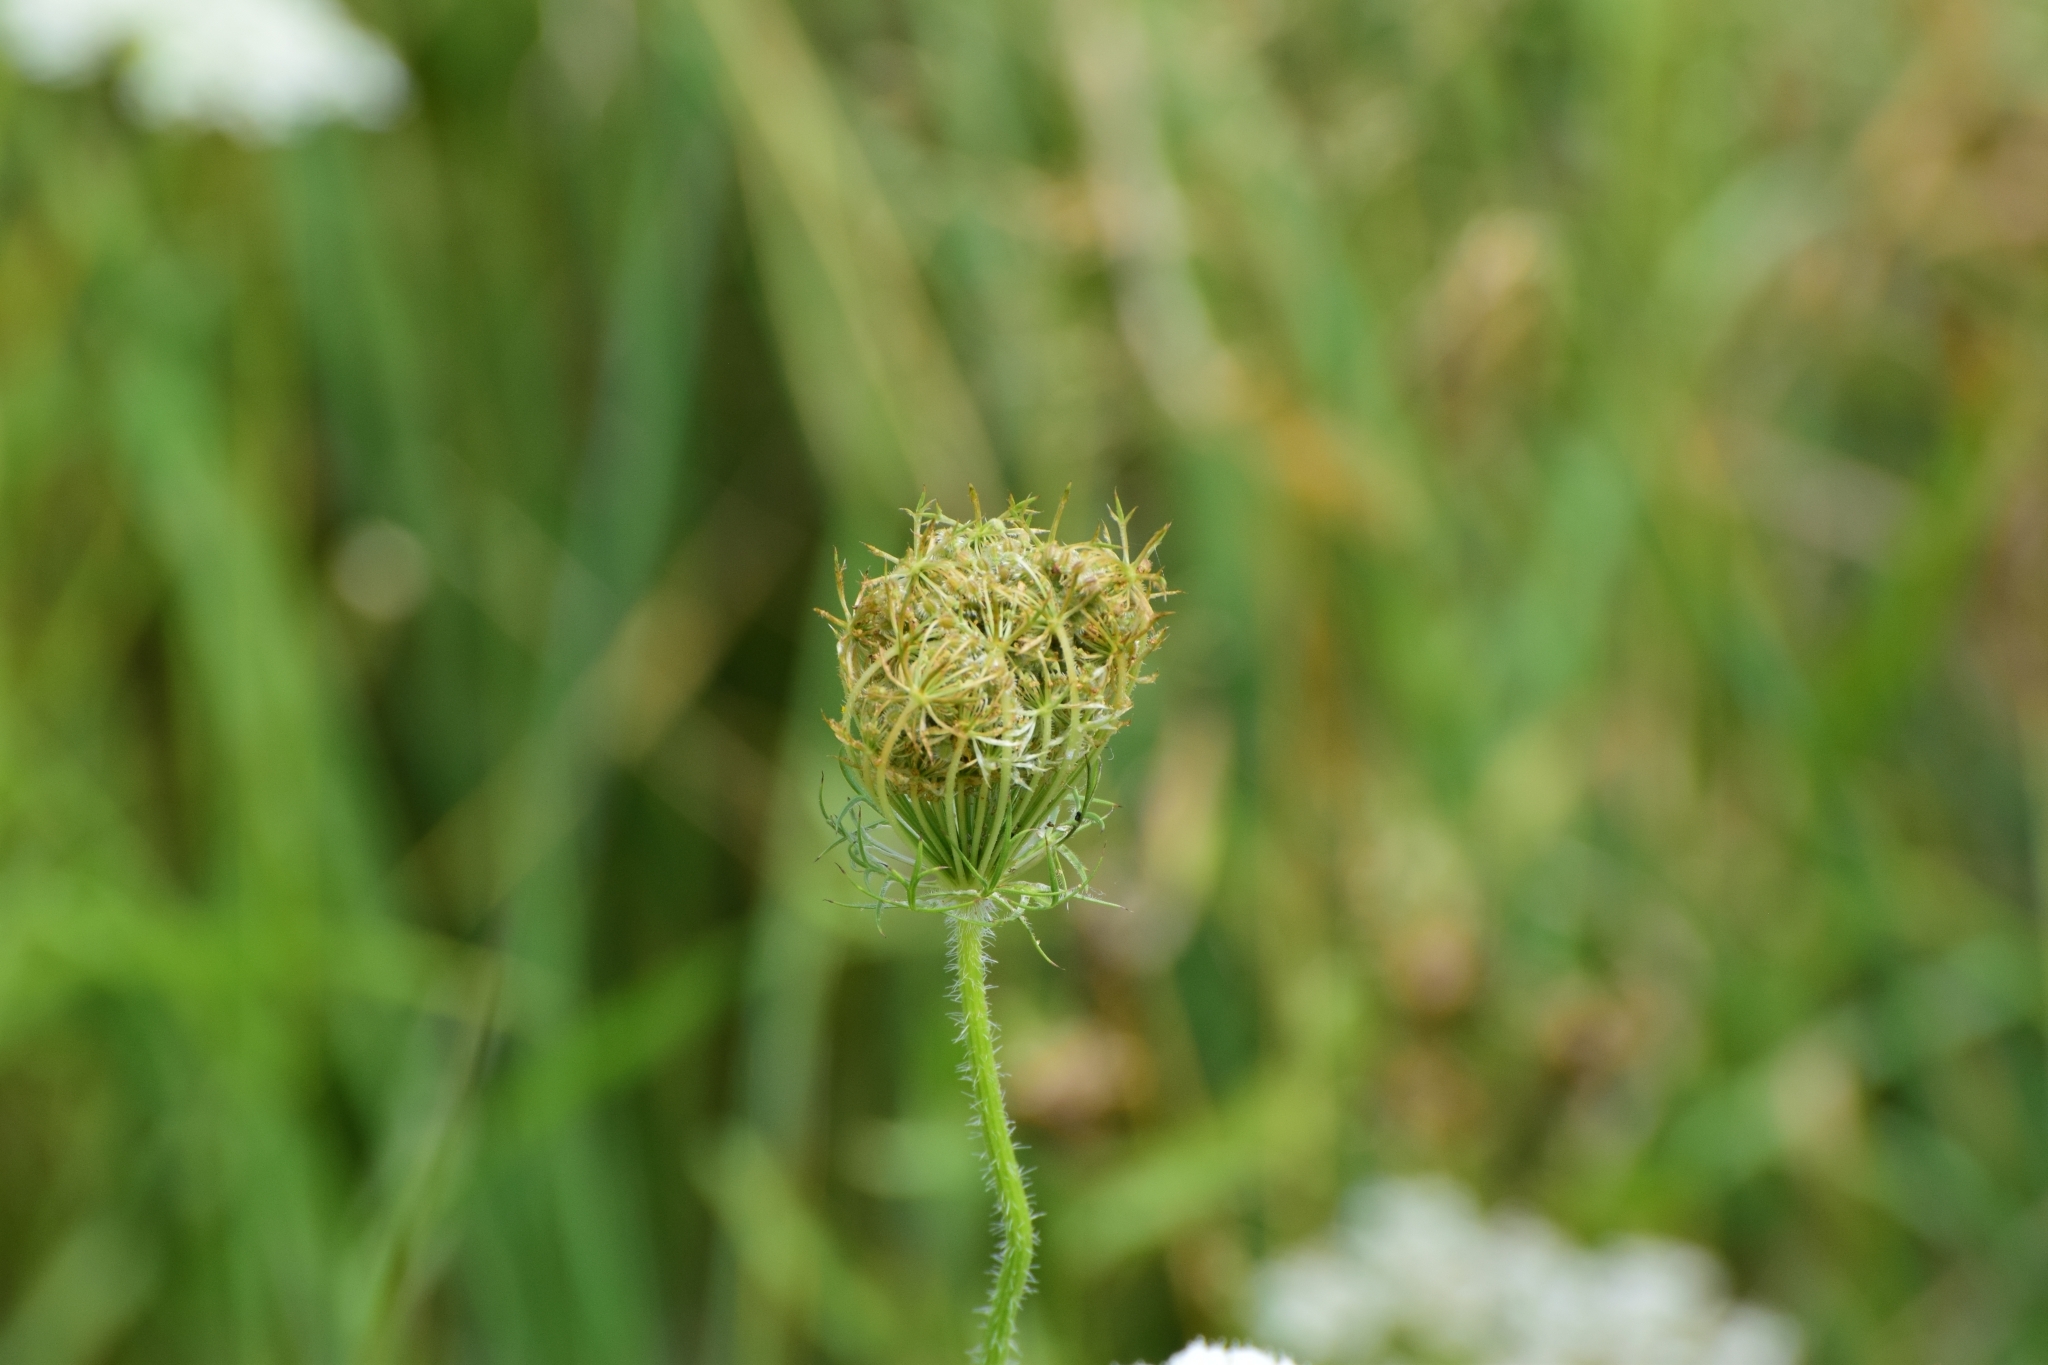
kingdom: Plantae
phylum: Tracheophyta
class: Magnoliopsida
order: Apiales
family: Apiaceae
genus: Daucus
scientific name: Daucus carota
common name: Wild carrot
